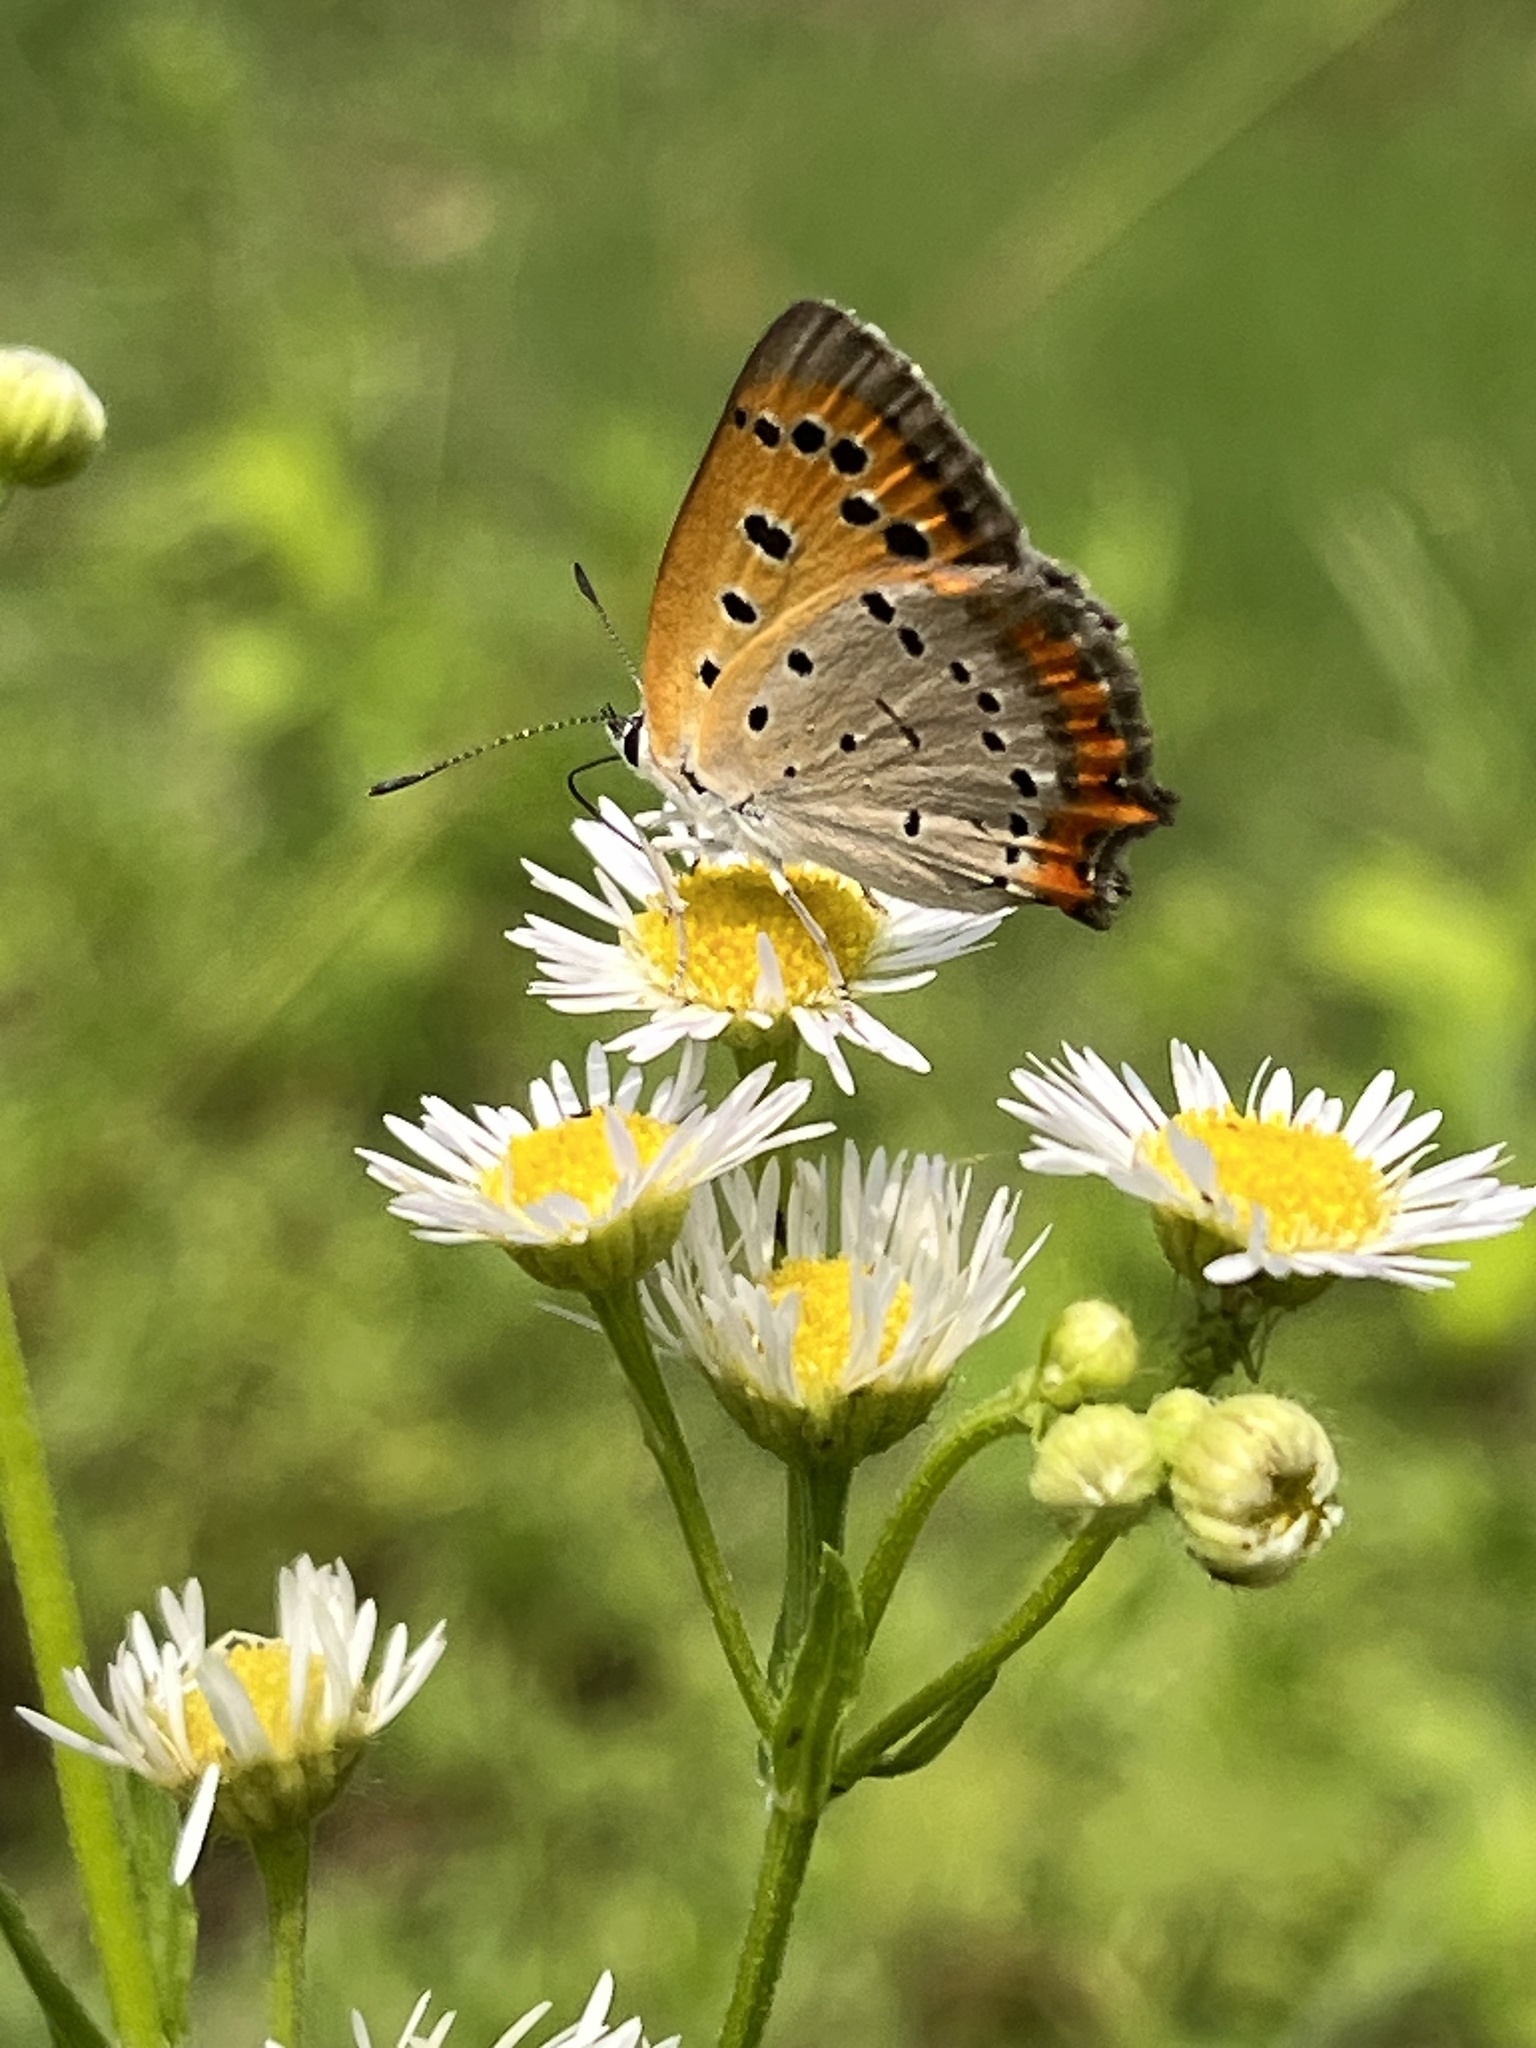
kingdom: Animalia
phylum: Arthropoda
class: Insecta
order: Lepidoptera
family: Lycaenidae
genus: Lycaena
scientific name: Lycaena phlaeas
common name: Small copper
